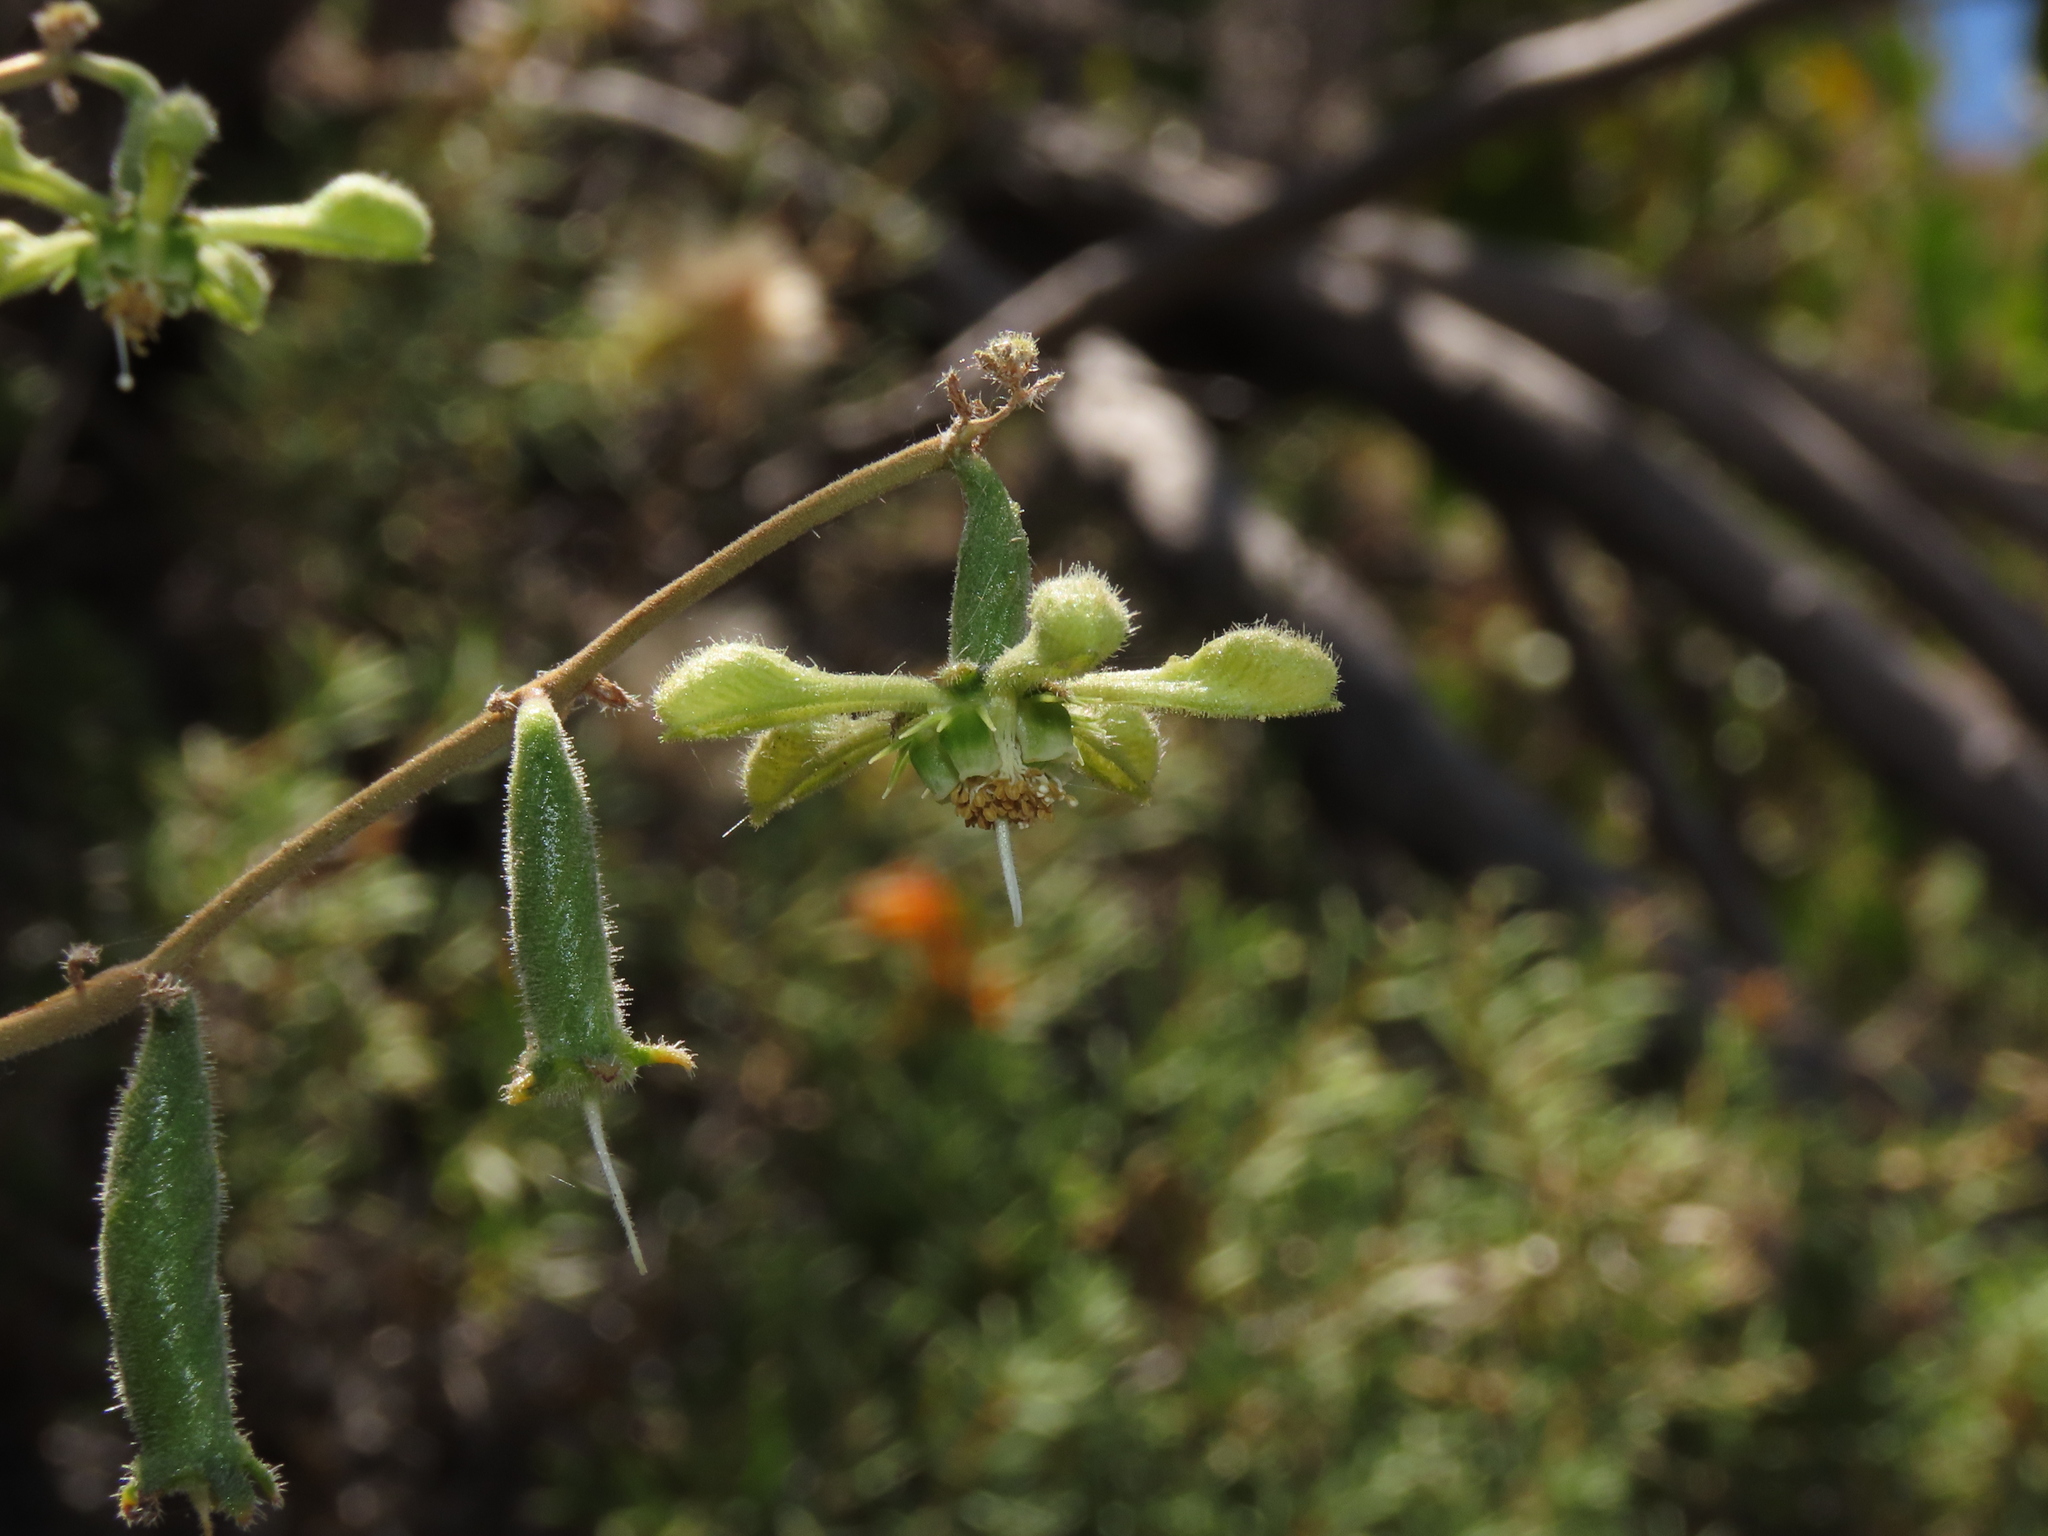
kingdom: Plantae
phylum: Tracheophyta
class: Magnoliopsida
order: Cornales
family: Loasaceae
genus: Blumenbachia
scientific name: Blumenbachia dissecta
